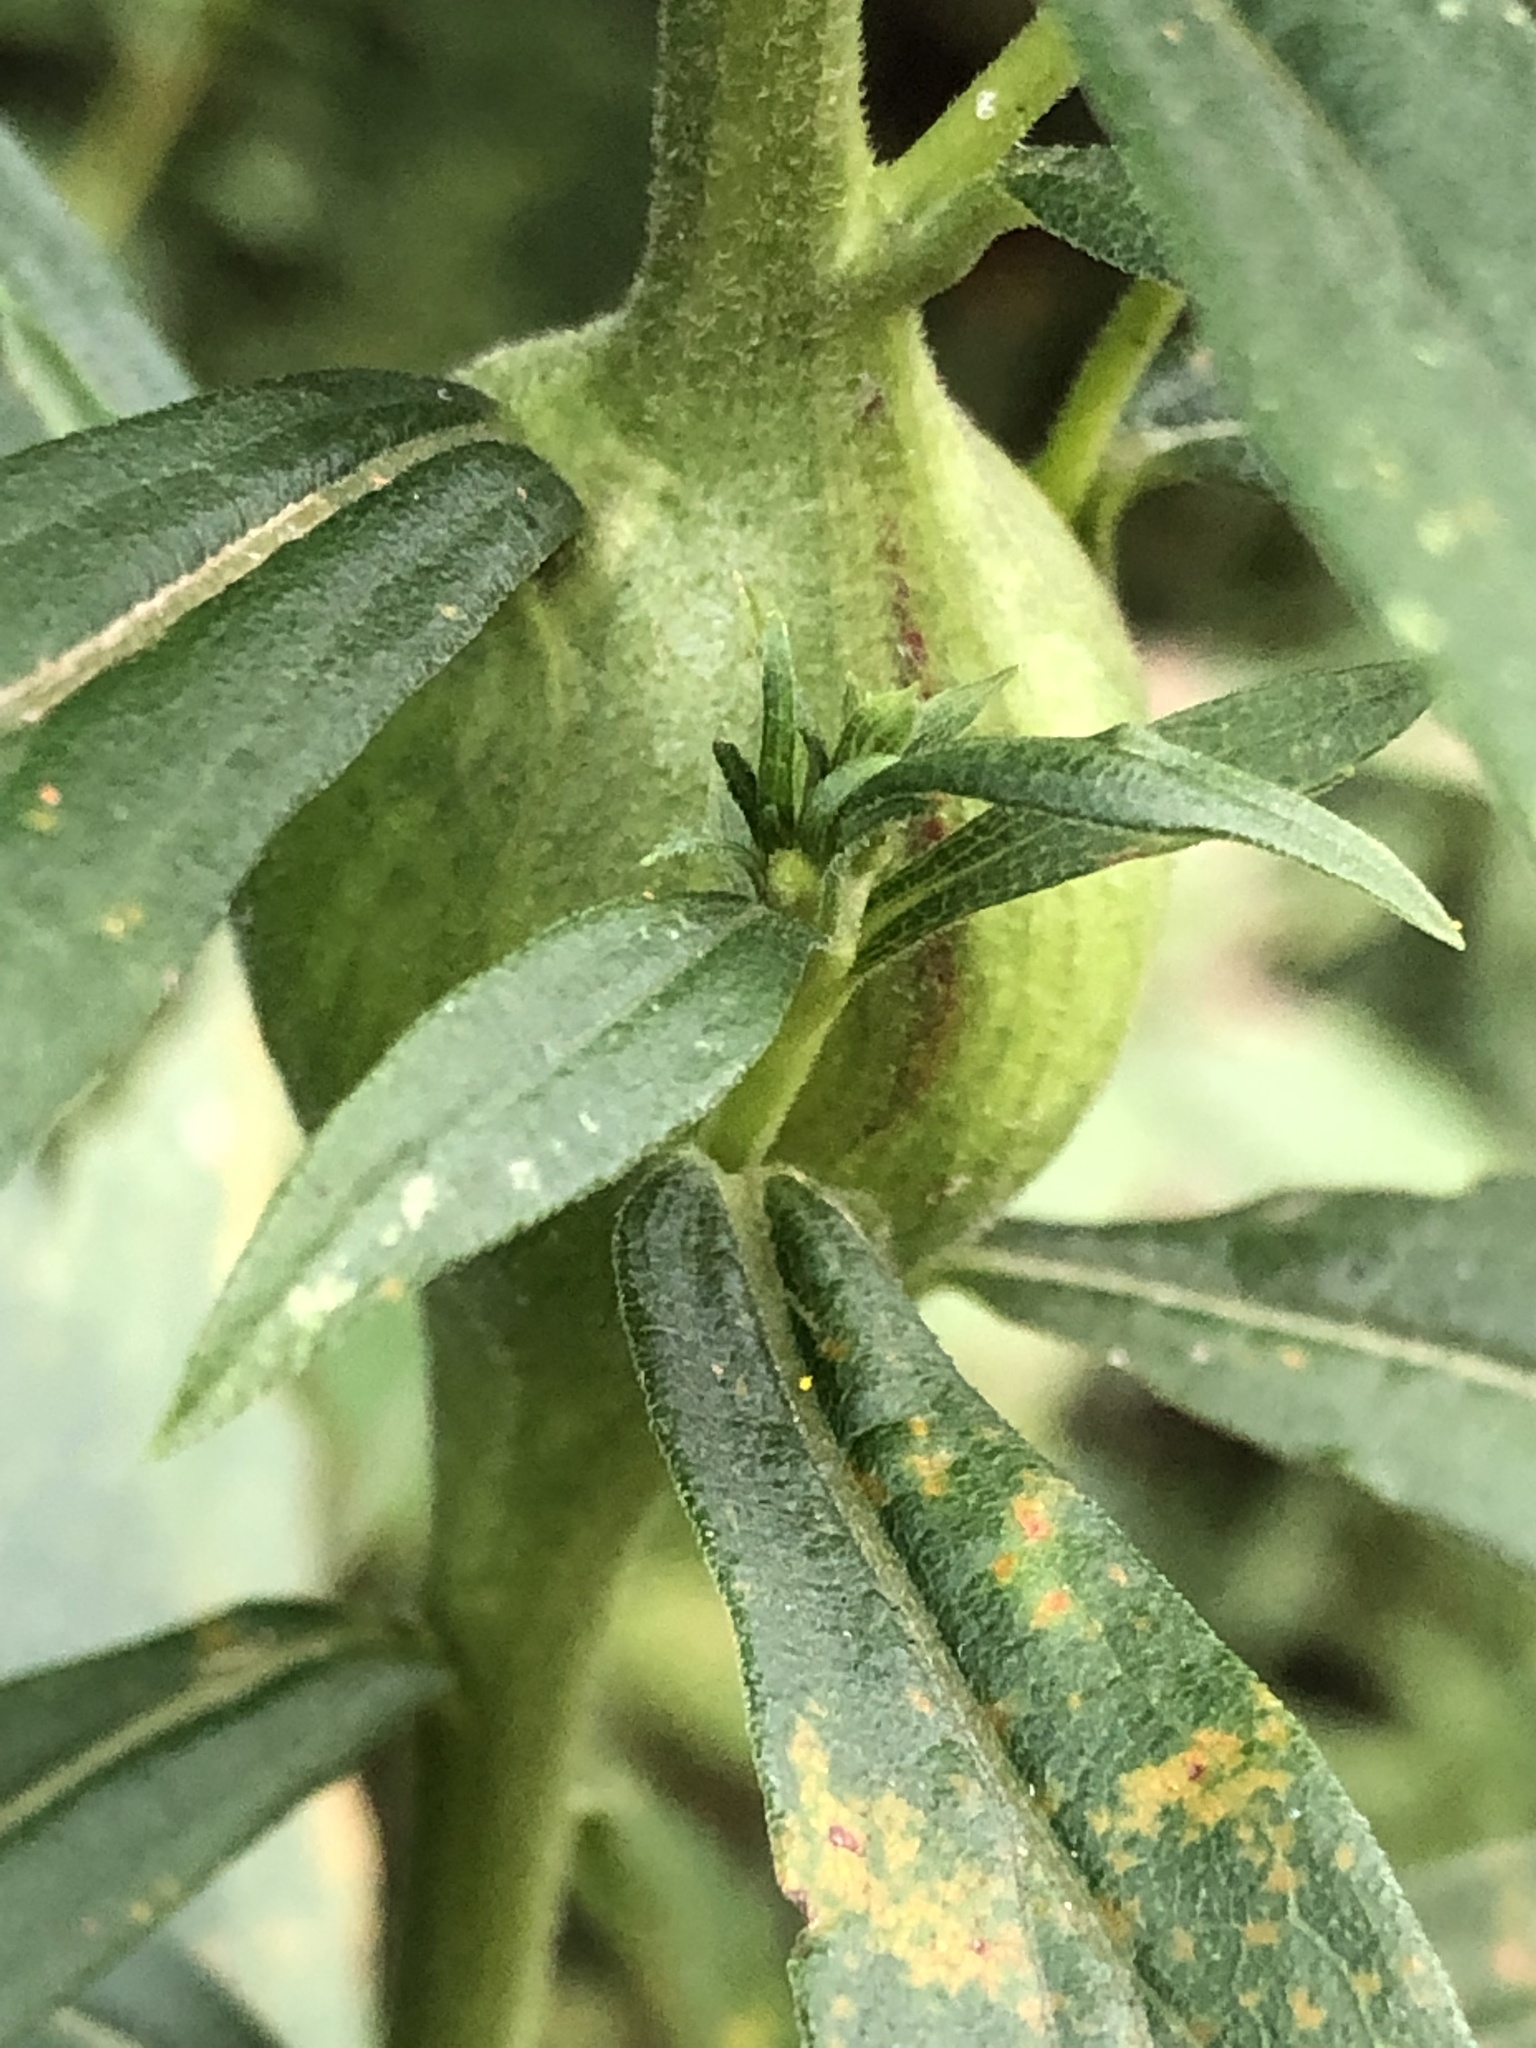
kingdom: Animalia
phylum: Arthropoda
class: Insecta
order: Diptera
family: Tephritidae
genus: Eurosta
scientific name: Eurosta solidaginis
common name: Goldenrod gall fly
